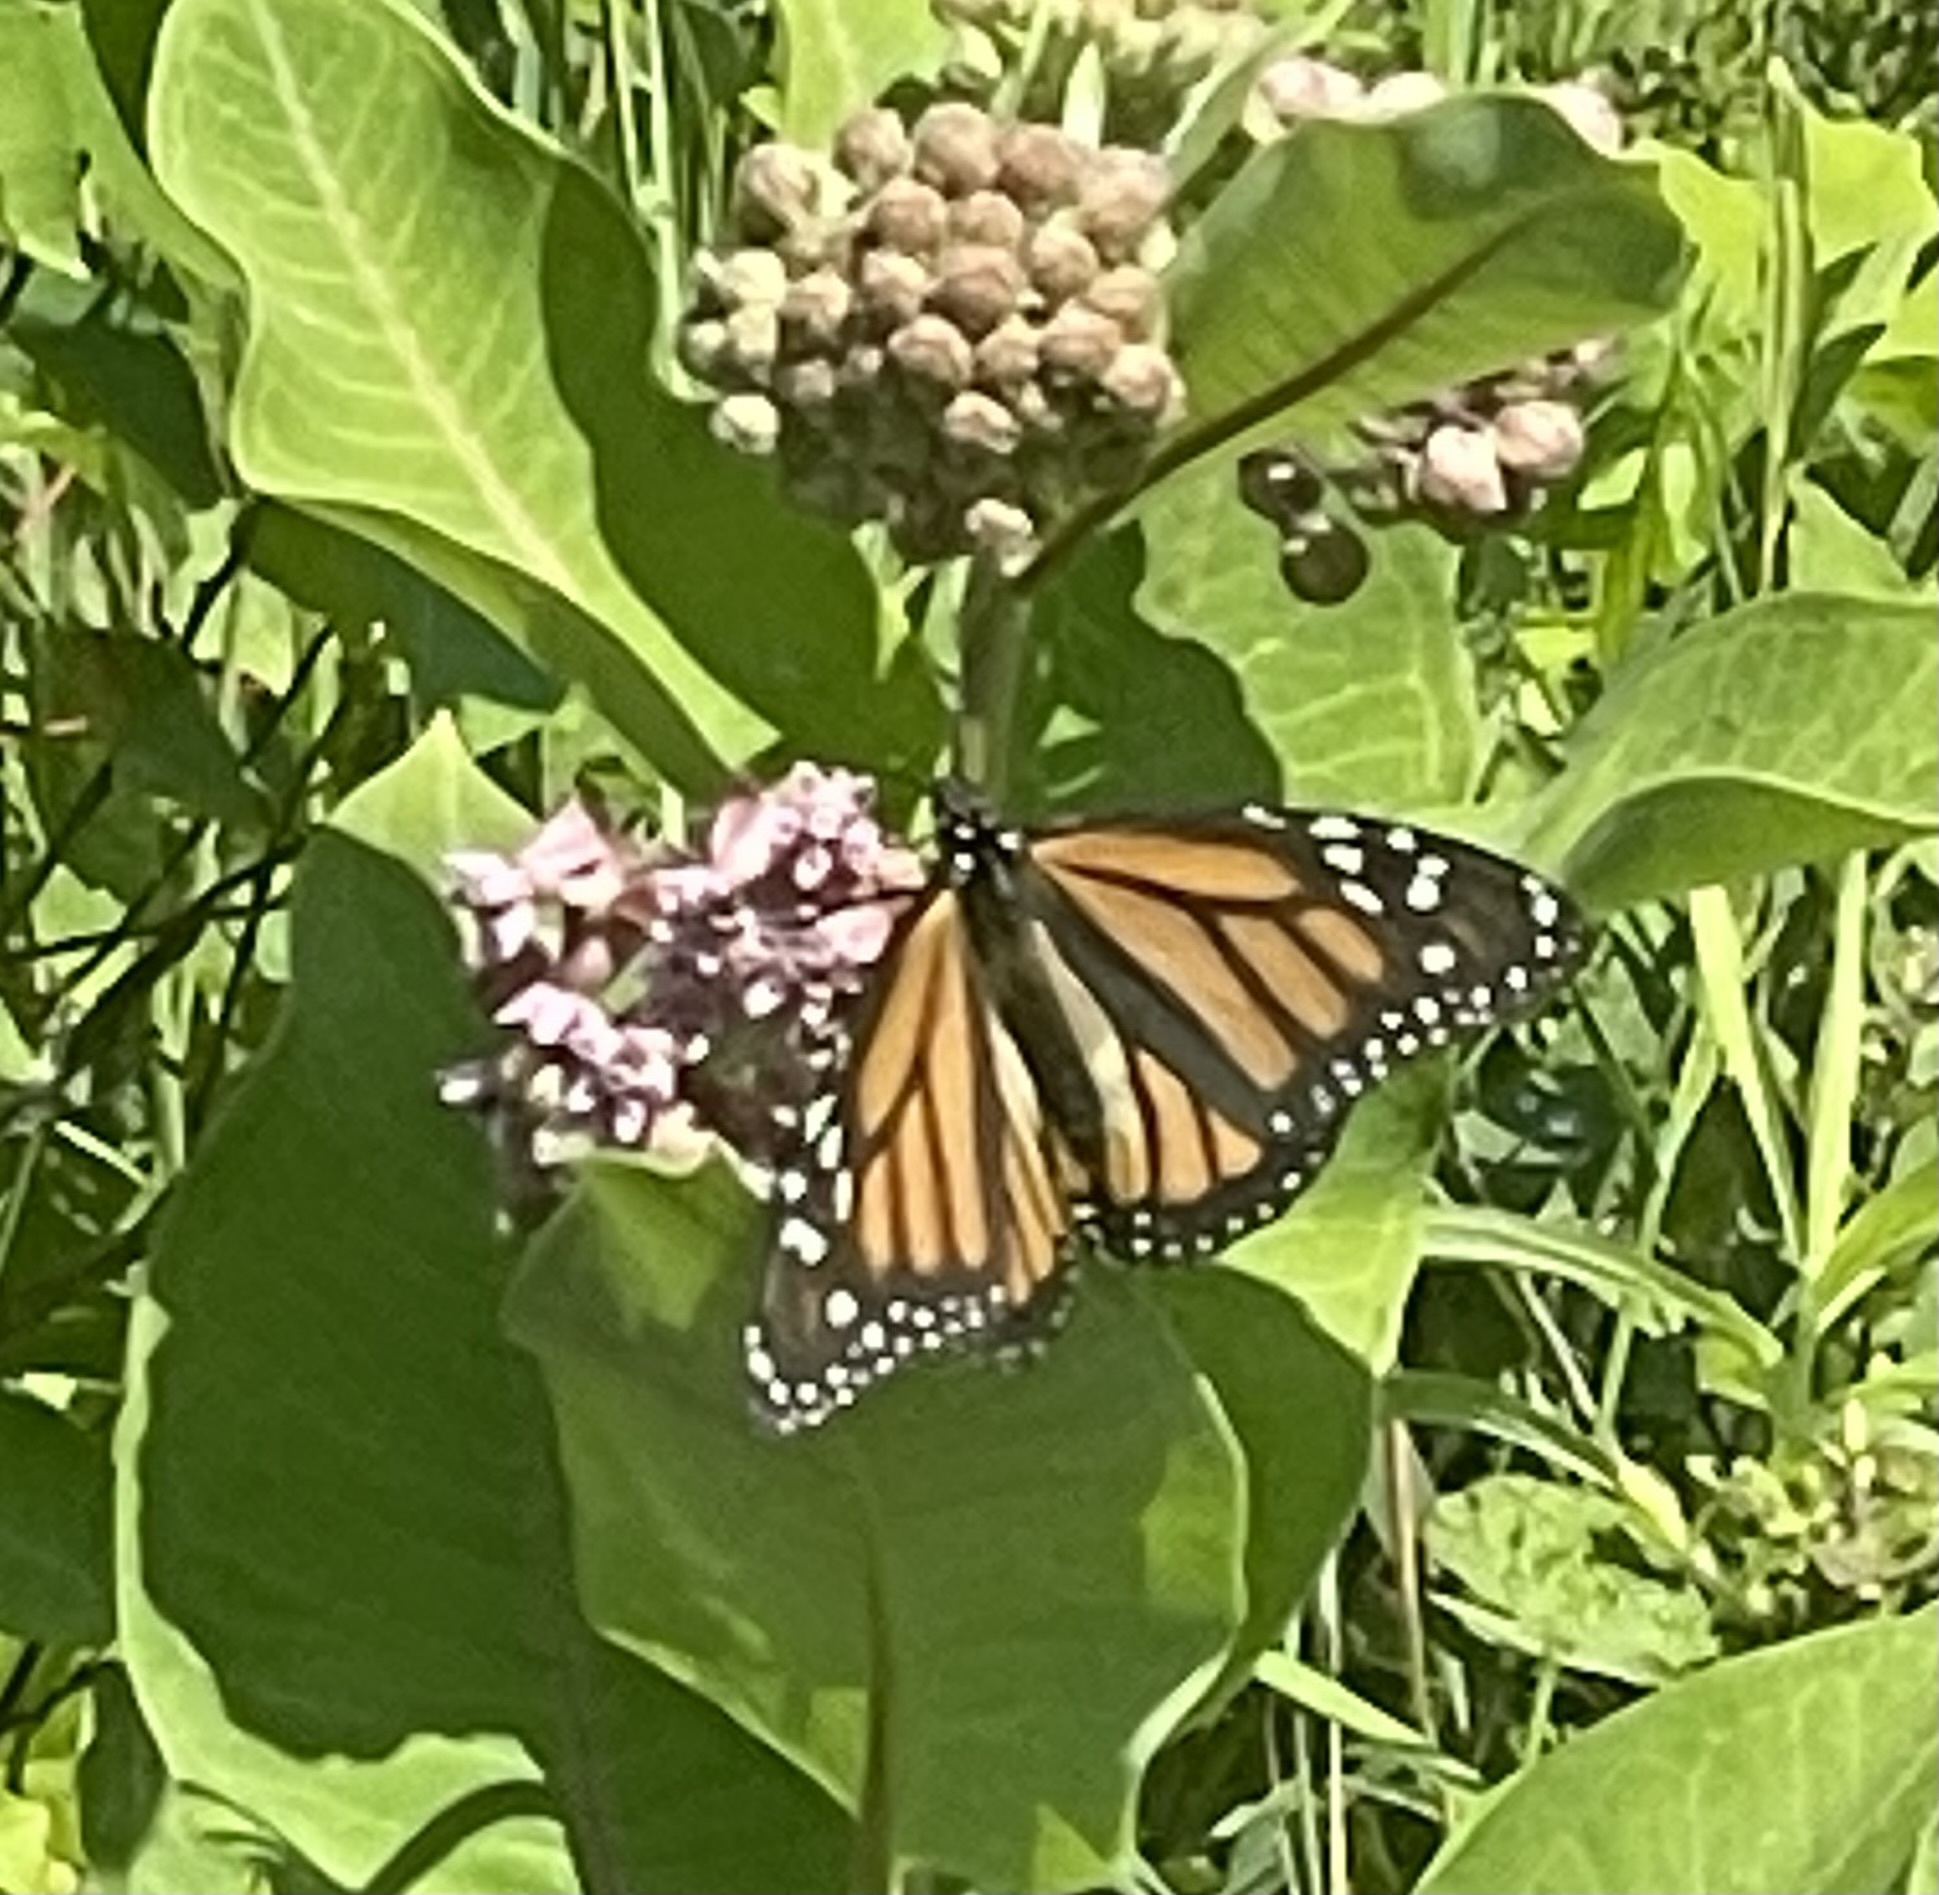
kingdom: Animalia
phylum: Arthropoda
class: Insecta
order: Lepidoptera
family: Nymphalidae
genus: Danaus
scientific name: Danaus plexippus
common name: Monarch
